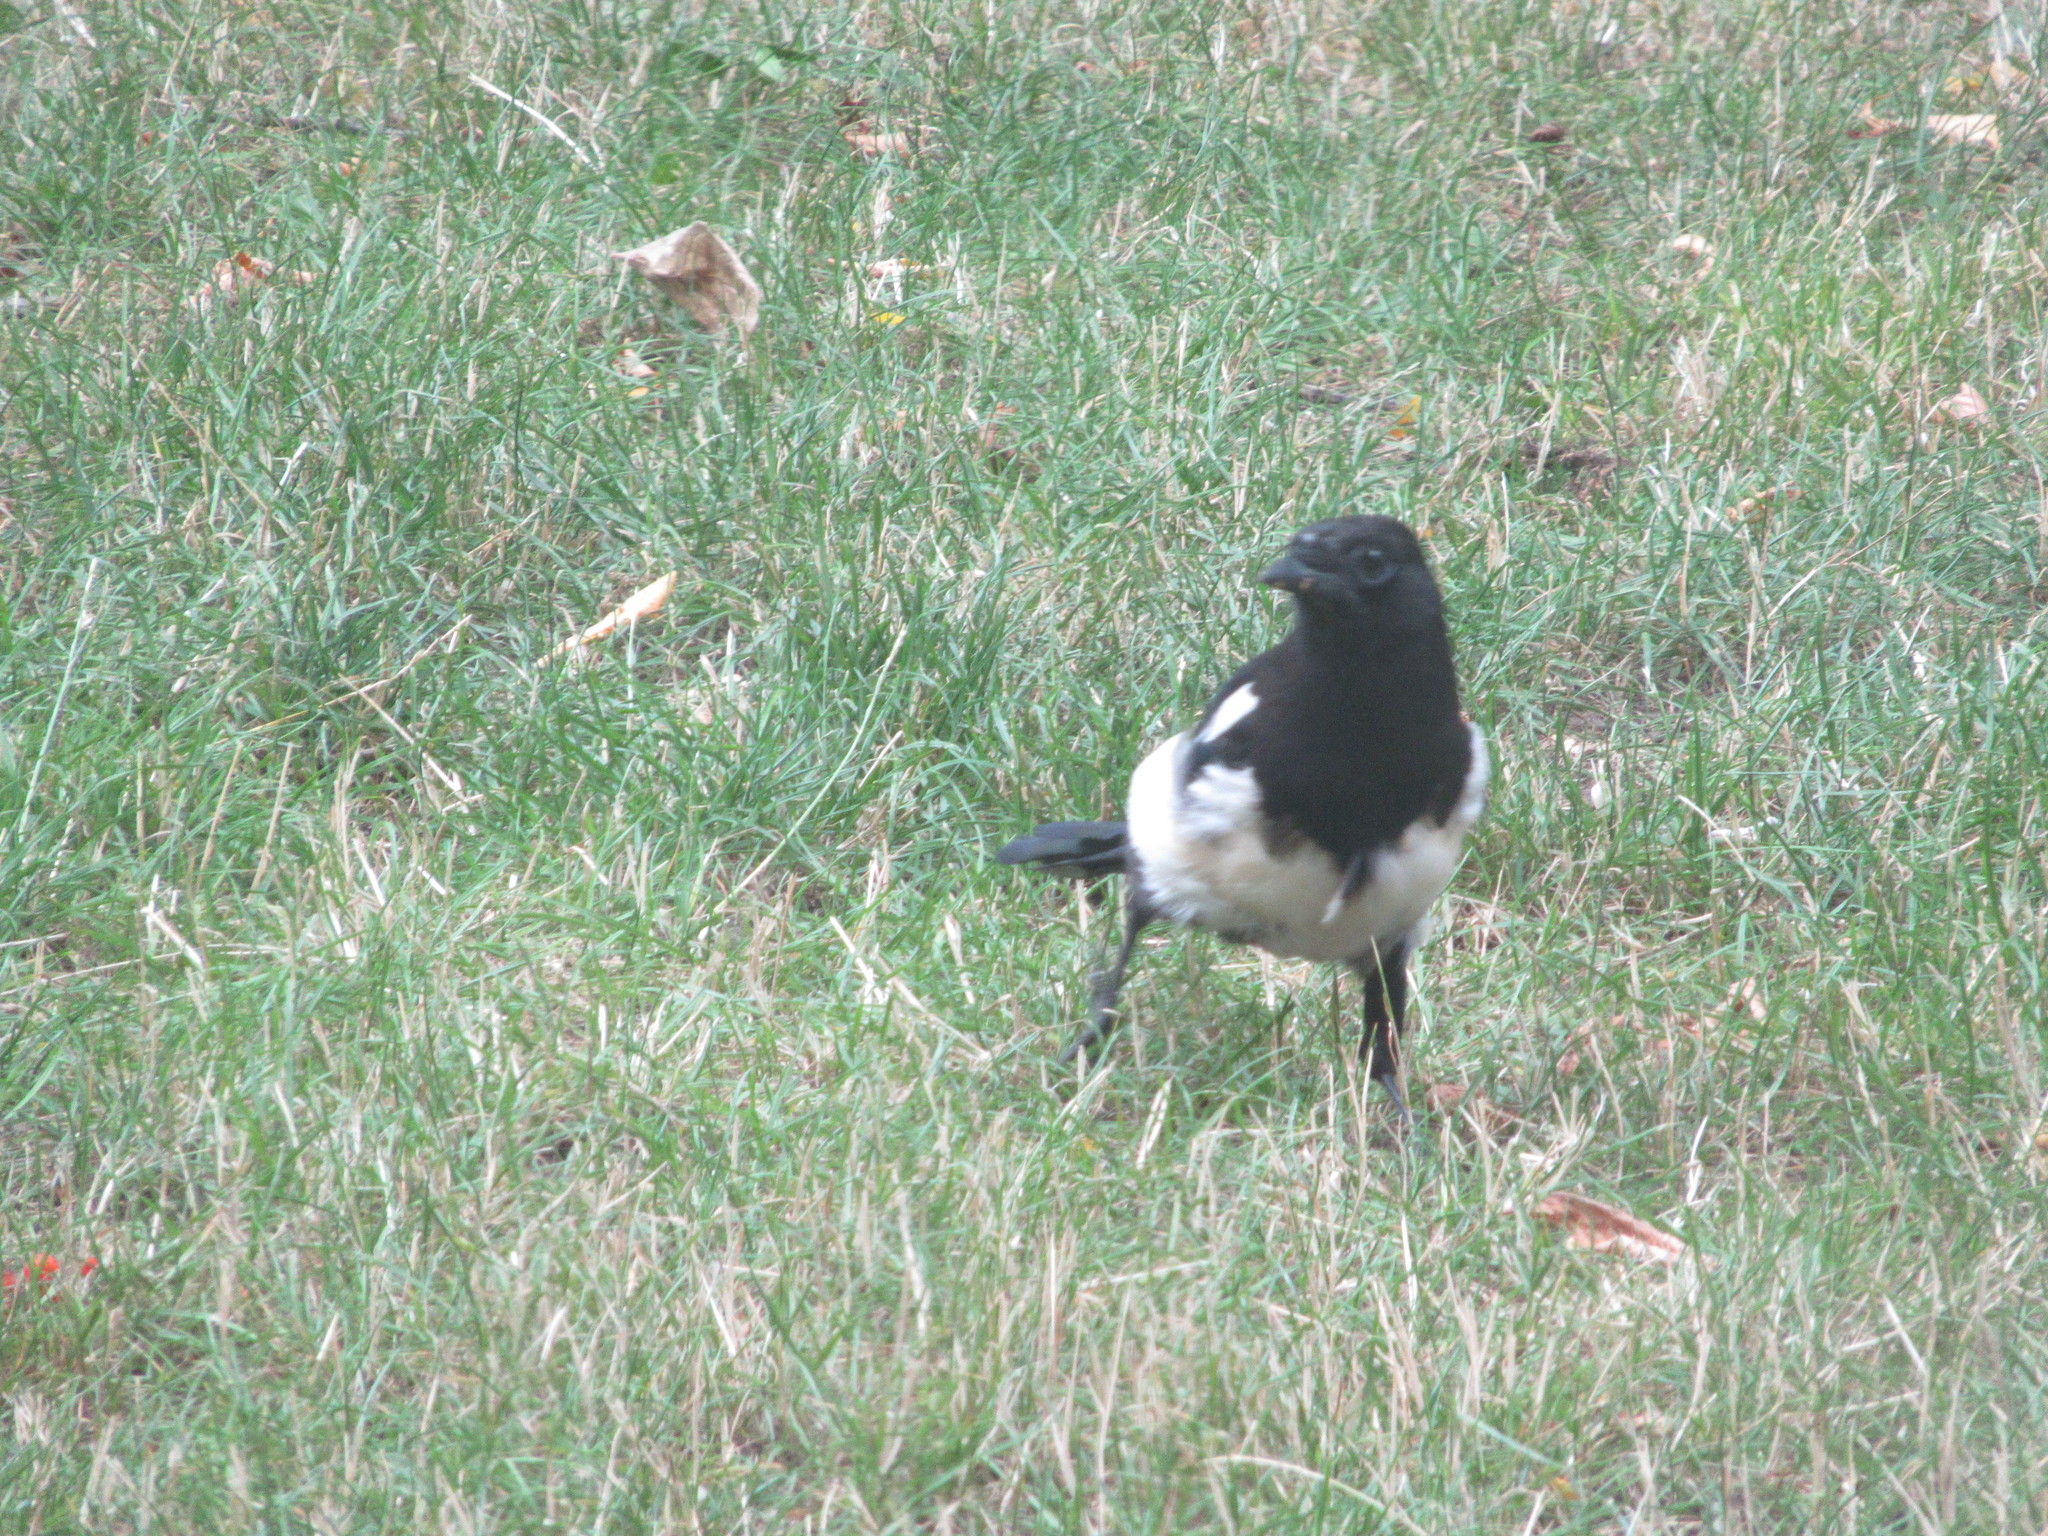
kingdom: Animalia
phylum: Chordata
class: Aves
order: Passeriformes
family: Corvidae
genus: Pica
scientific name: Pica pica
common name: Eurasian magpie
